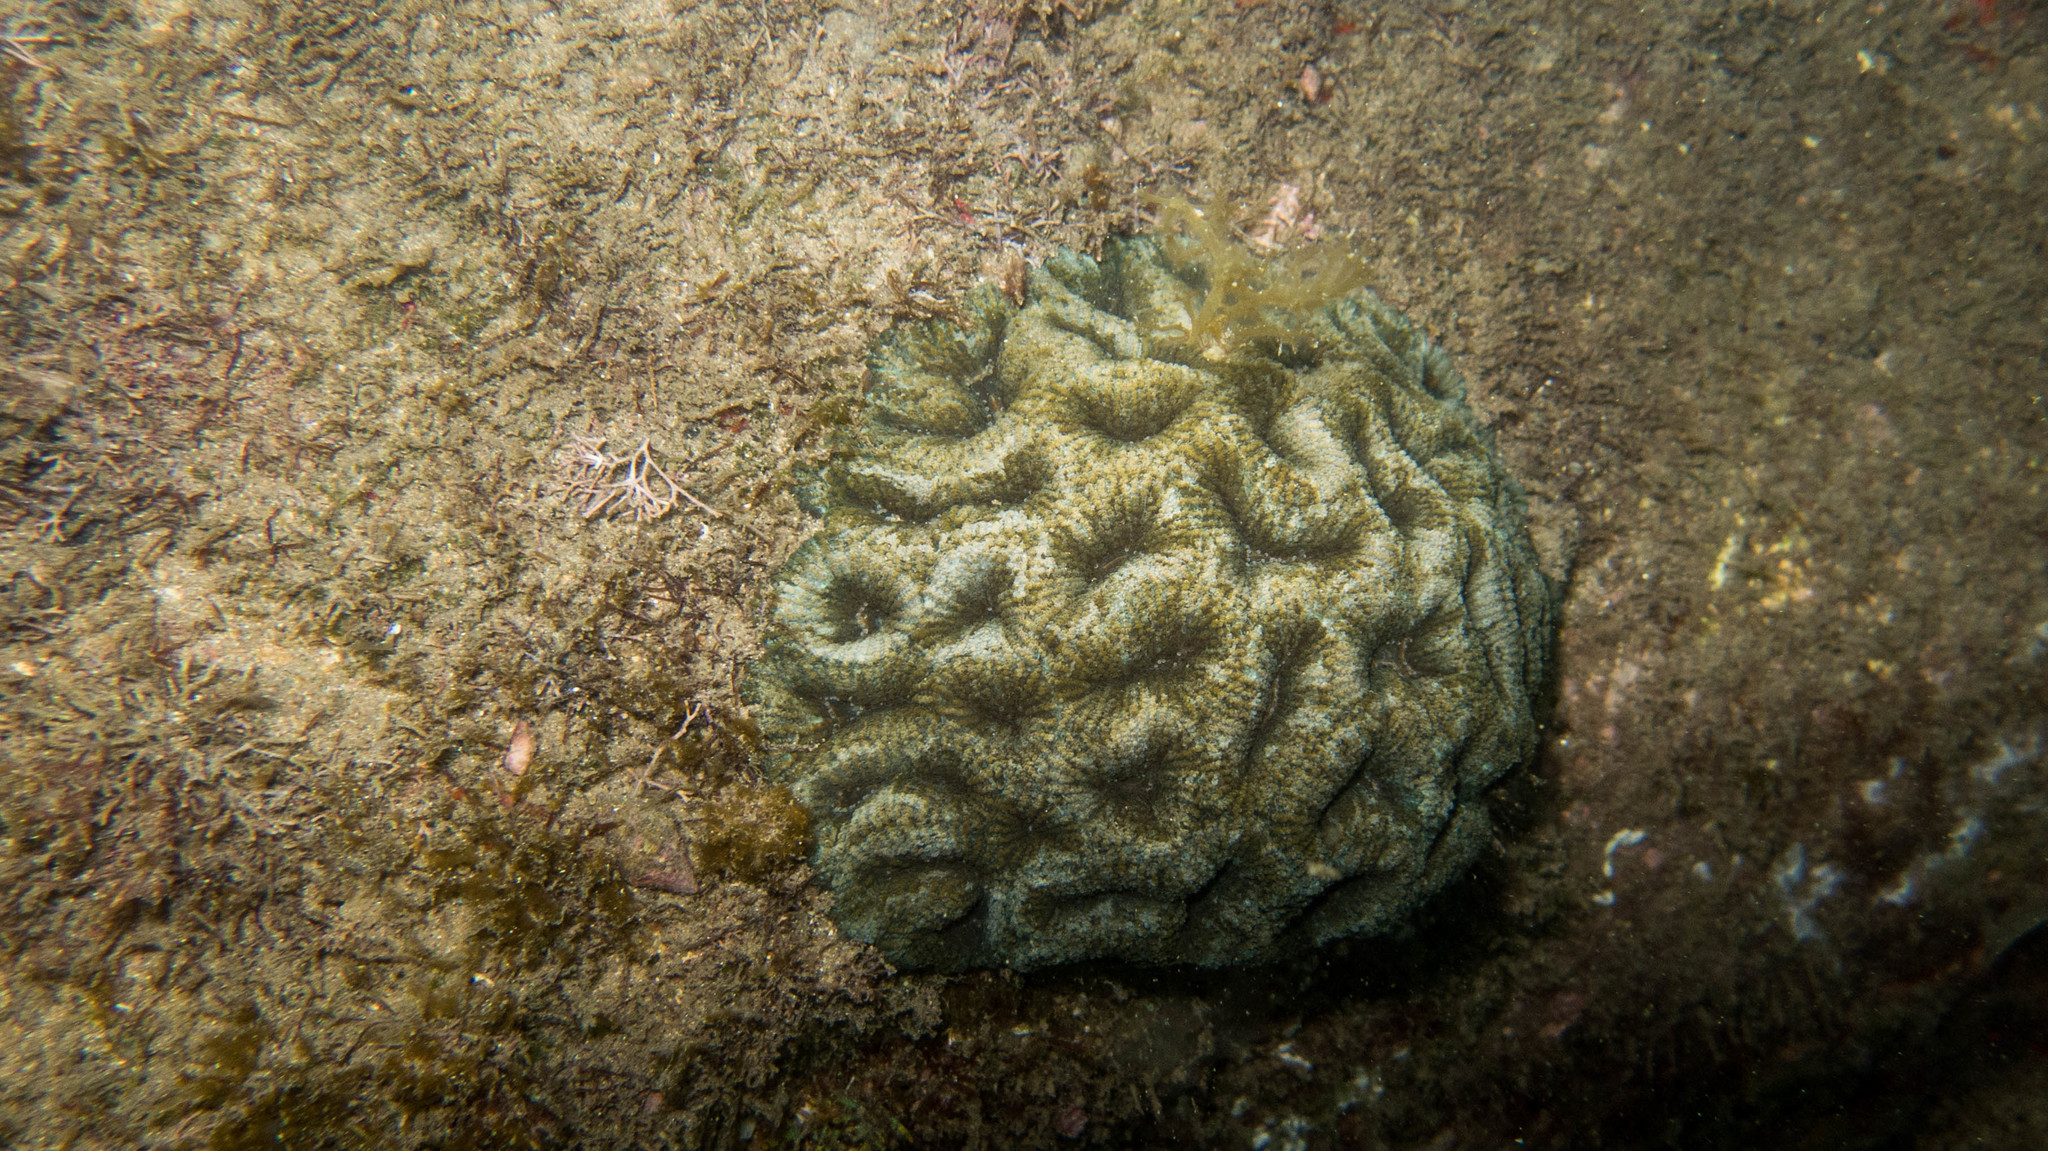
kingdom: Animalia
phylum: Cnidaria
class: Anthozoa
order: Scleractinia
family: Faviidae
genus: Mussismilia
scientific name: Mussismilia hispida
